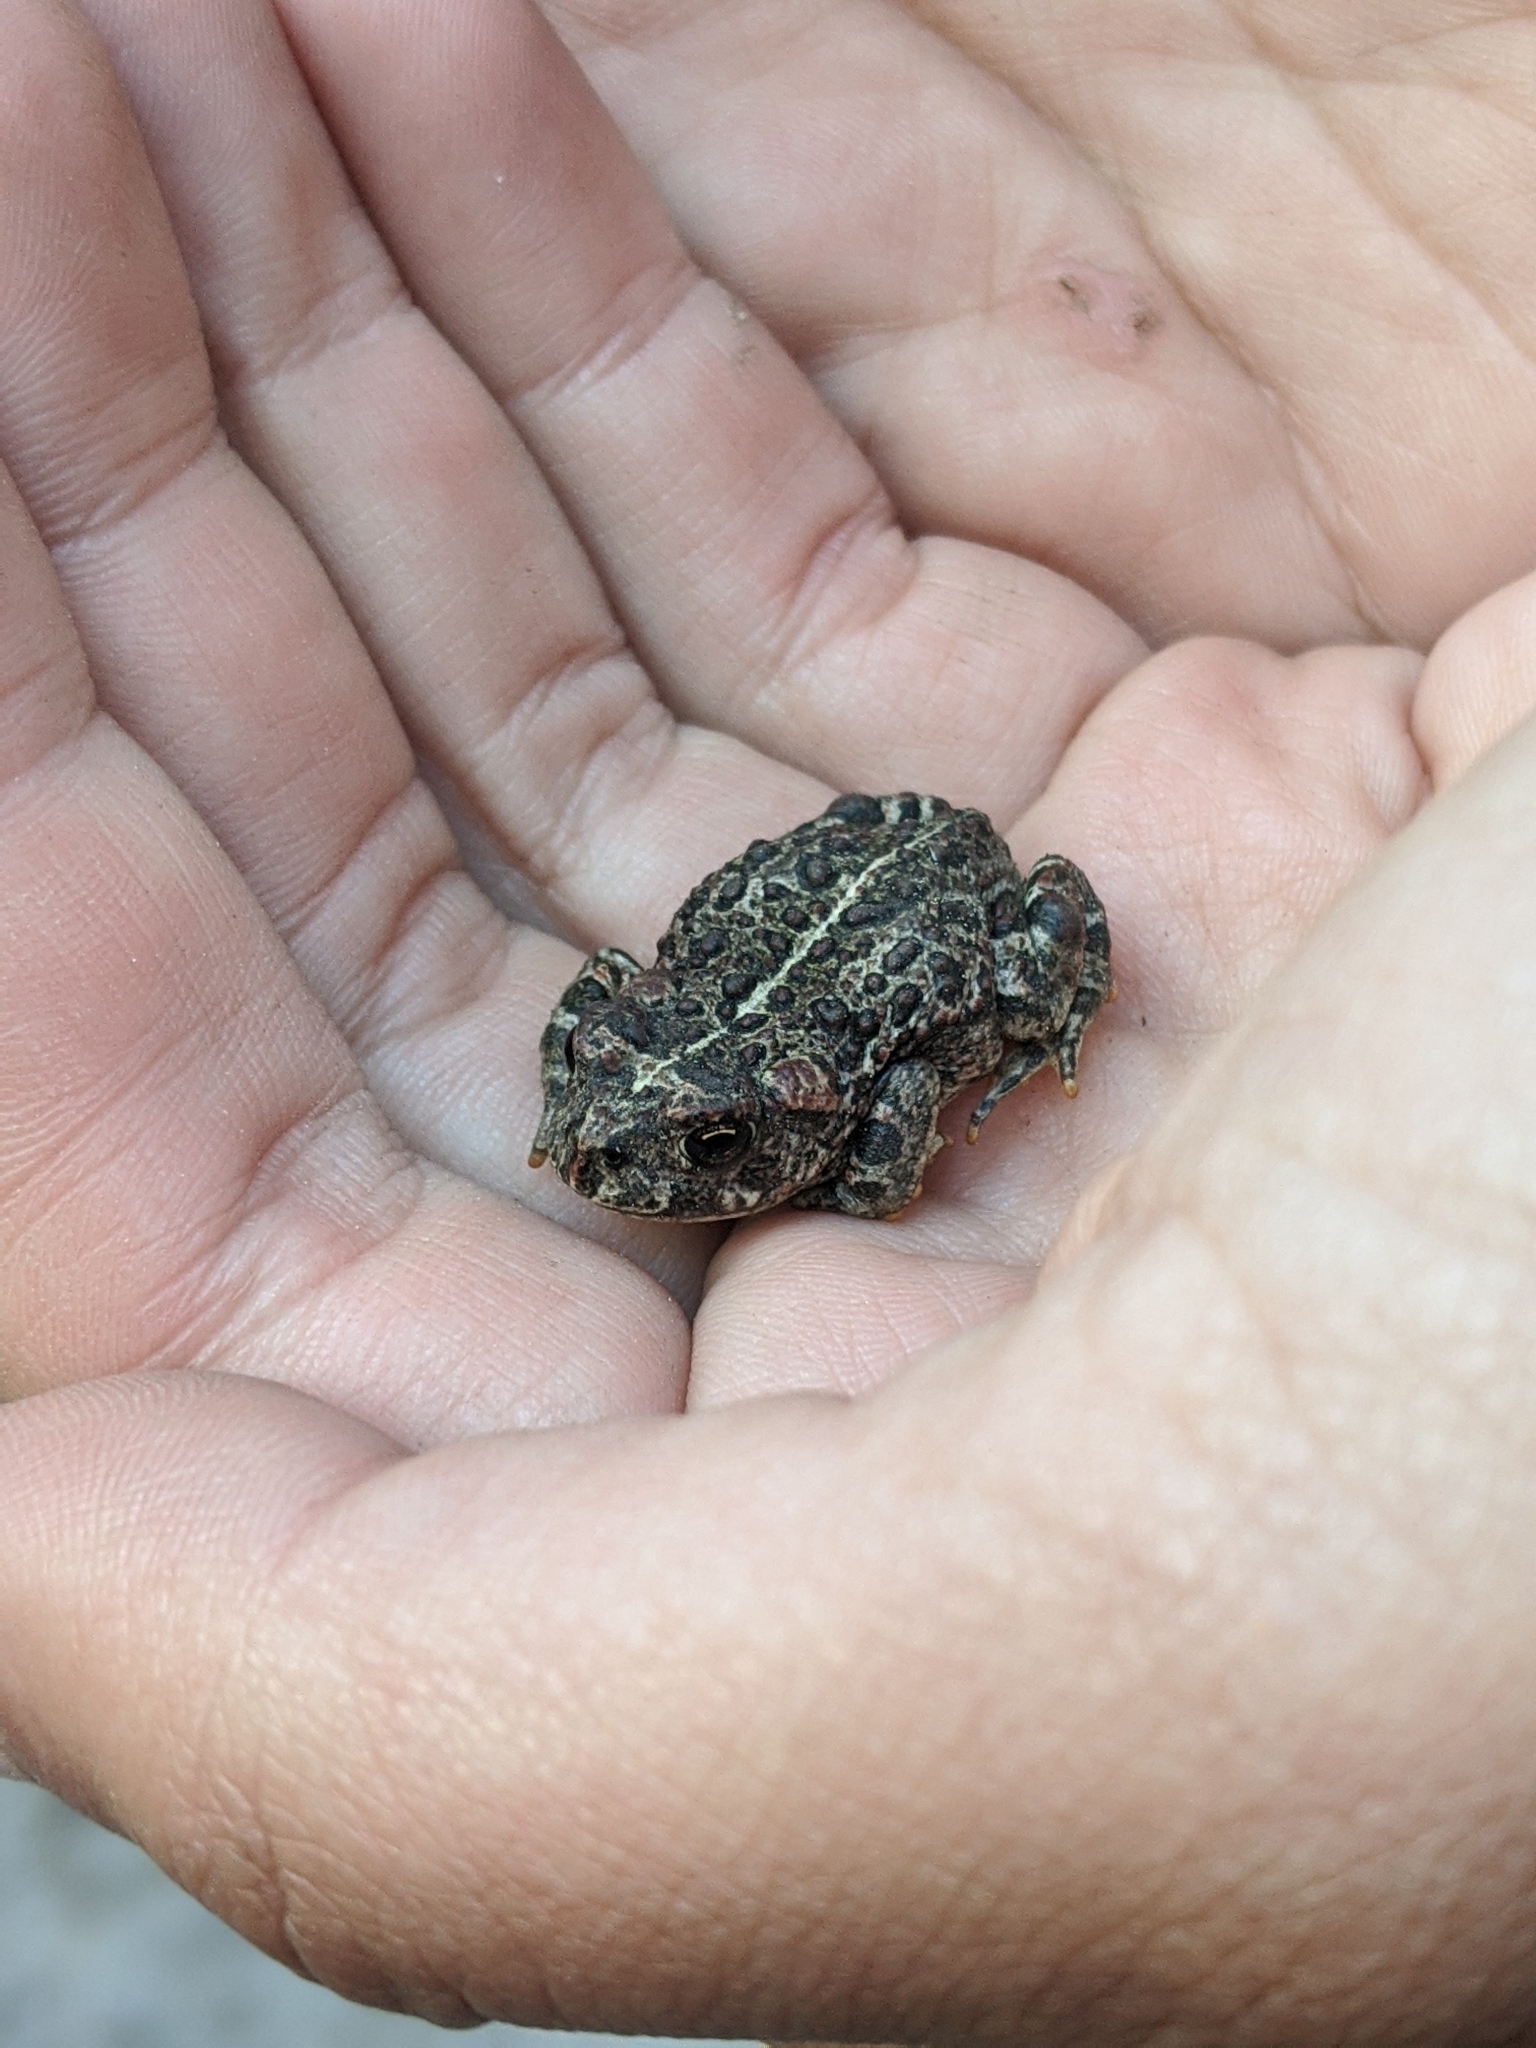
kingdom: Animalia
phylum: Chordata
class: Amphibia
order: Anura
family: Bufonidae
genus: Anaxyrus
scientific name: Anaxyrus boreas
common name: Western toad
